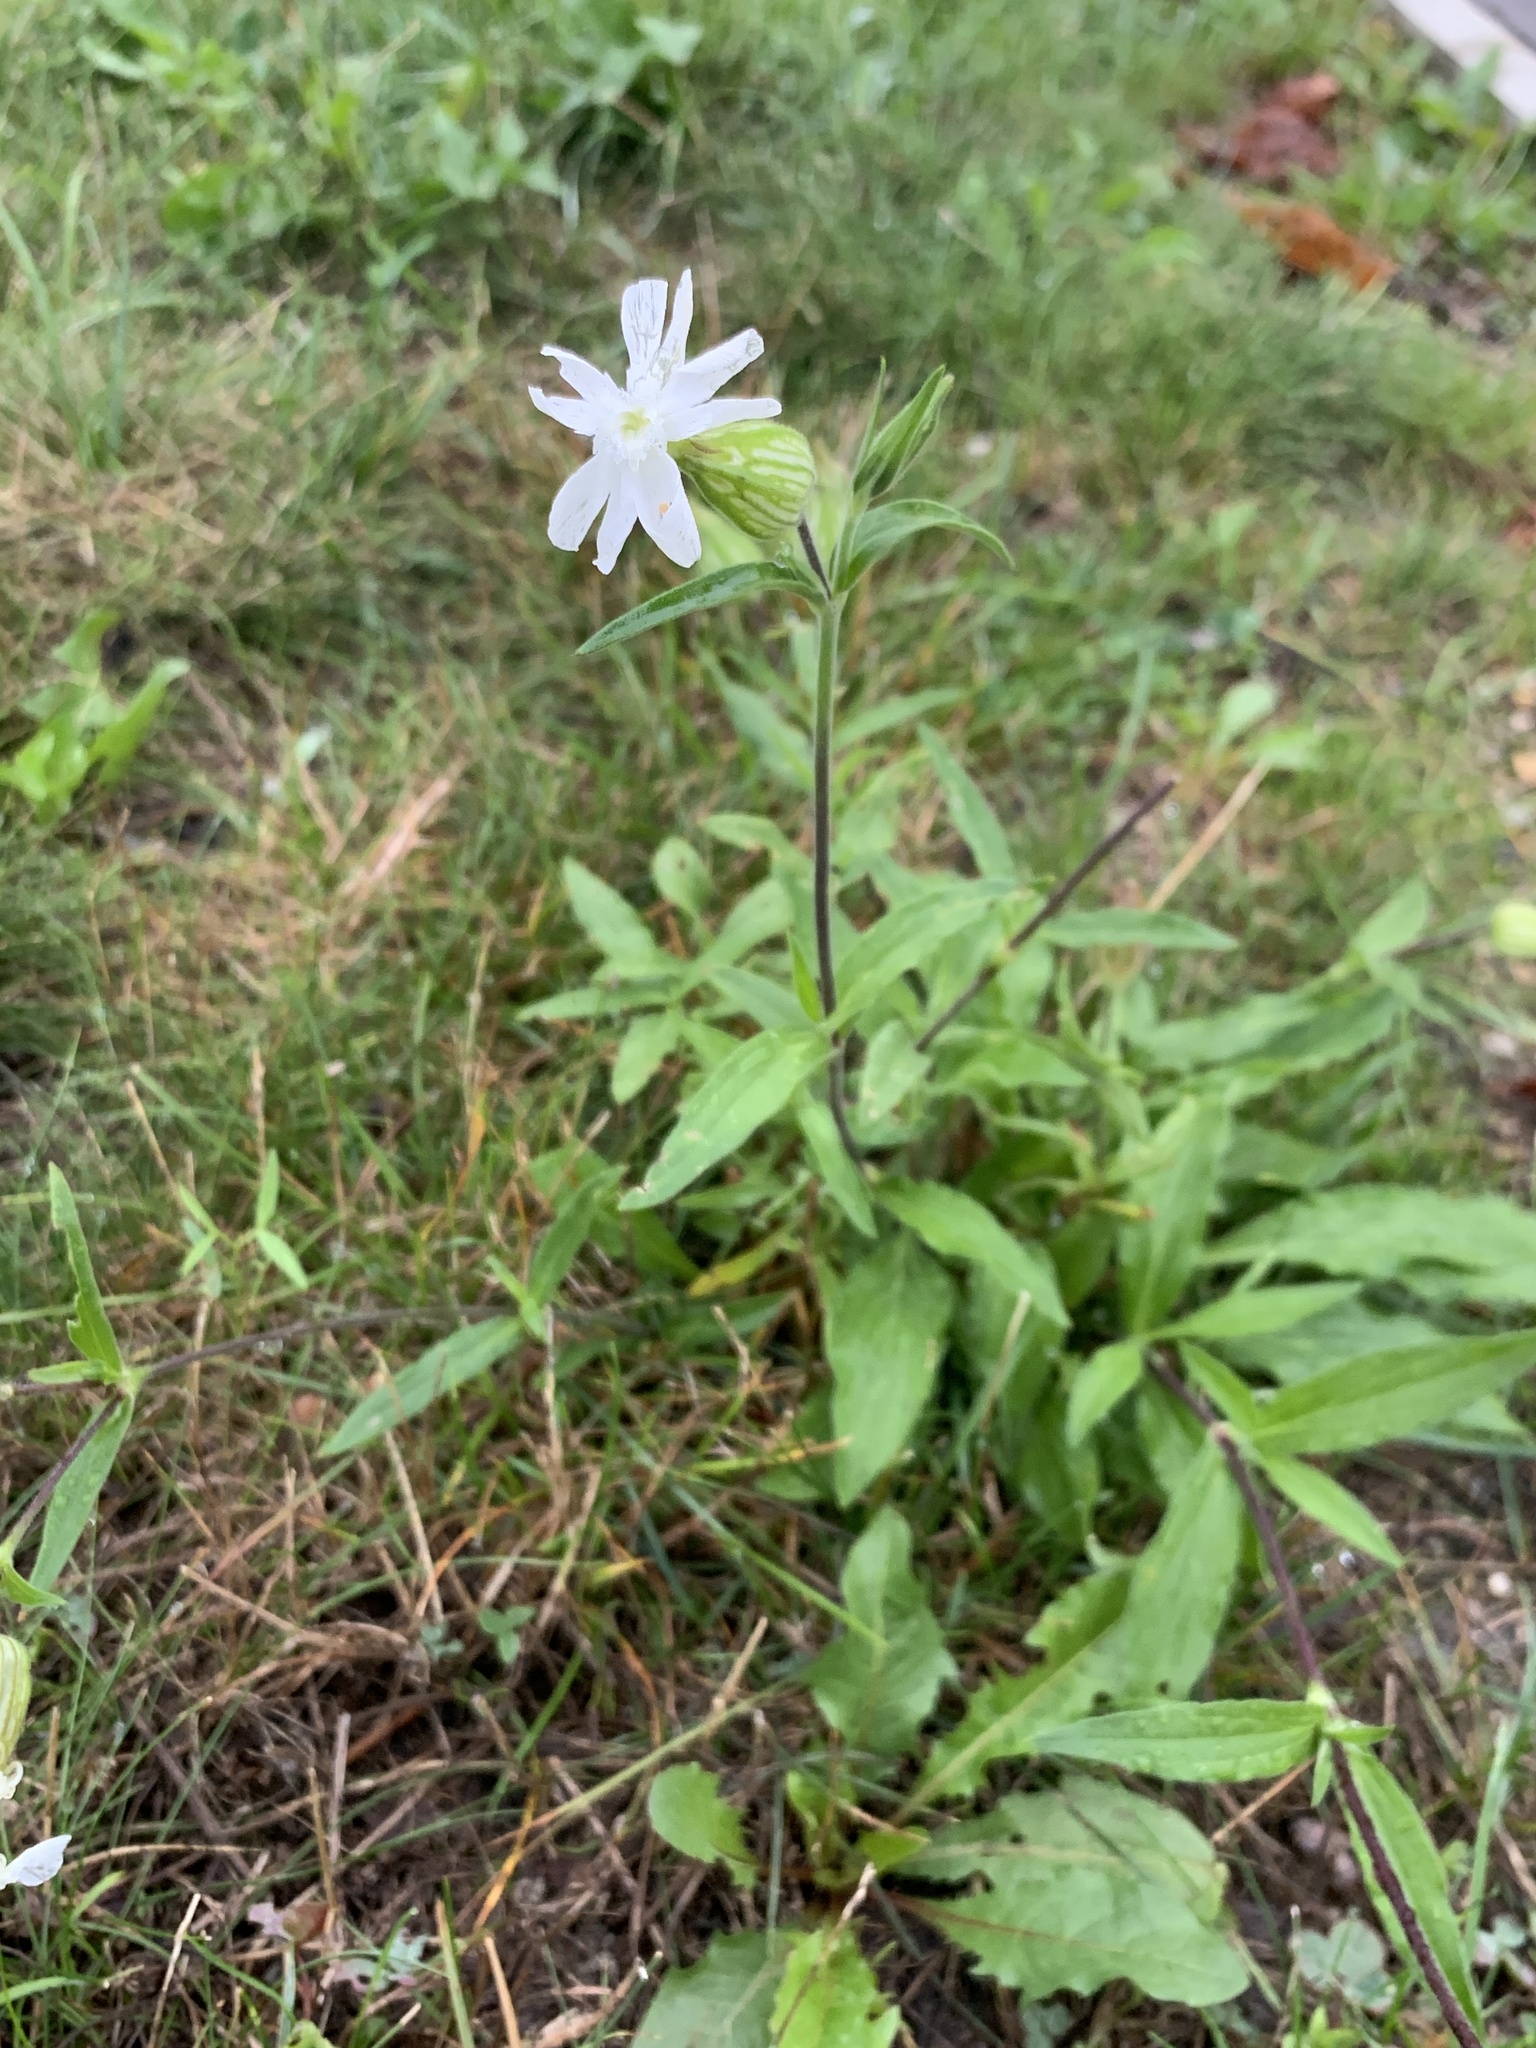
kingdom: Plantae
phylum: Tracheophyta
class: Magnoliopsida
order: Caryophyllales
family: Caryophyllaceae
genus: Silene
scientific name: Silene latifolia
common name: White campion
